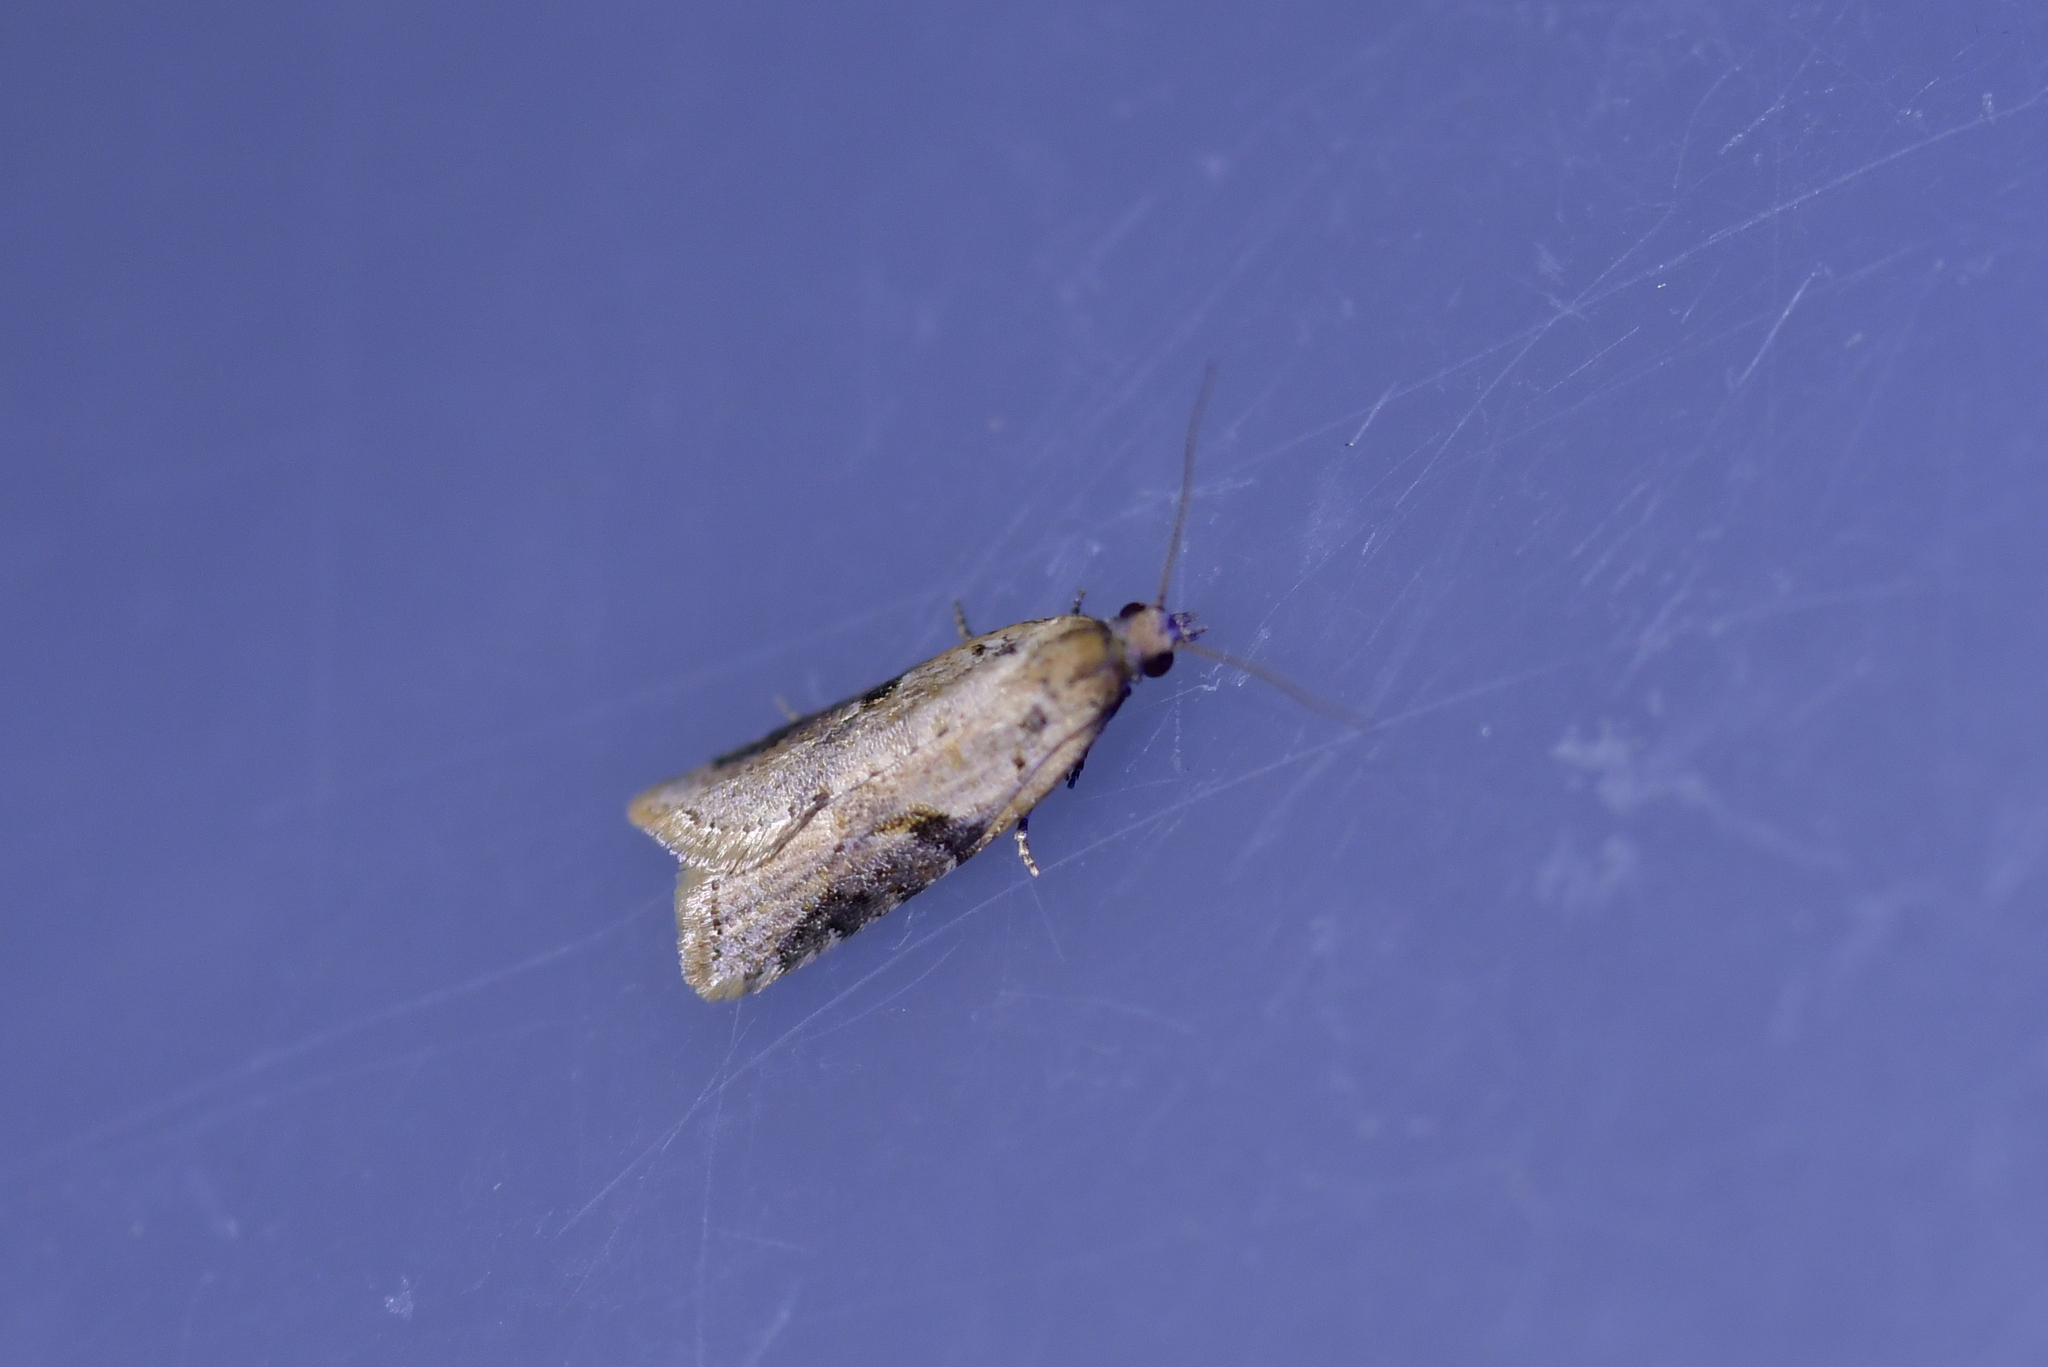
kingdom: Animalia
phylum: Arthropoda
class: Insecta
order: Lepidoptera
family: Tortricidae
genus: Capua
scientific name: Capua semiferana
